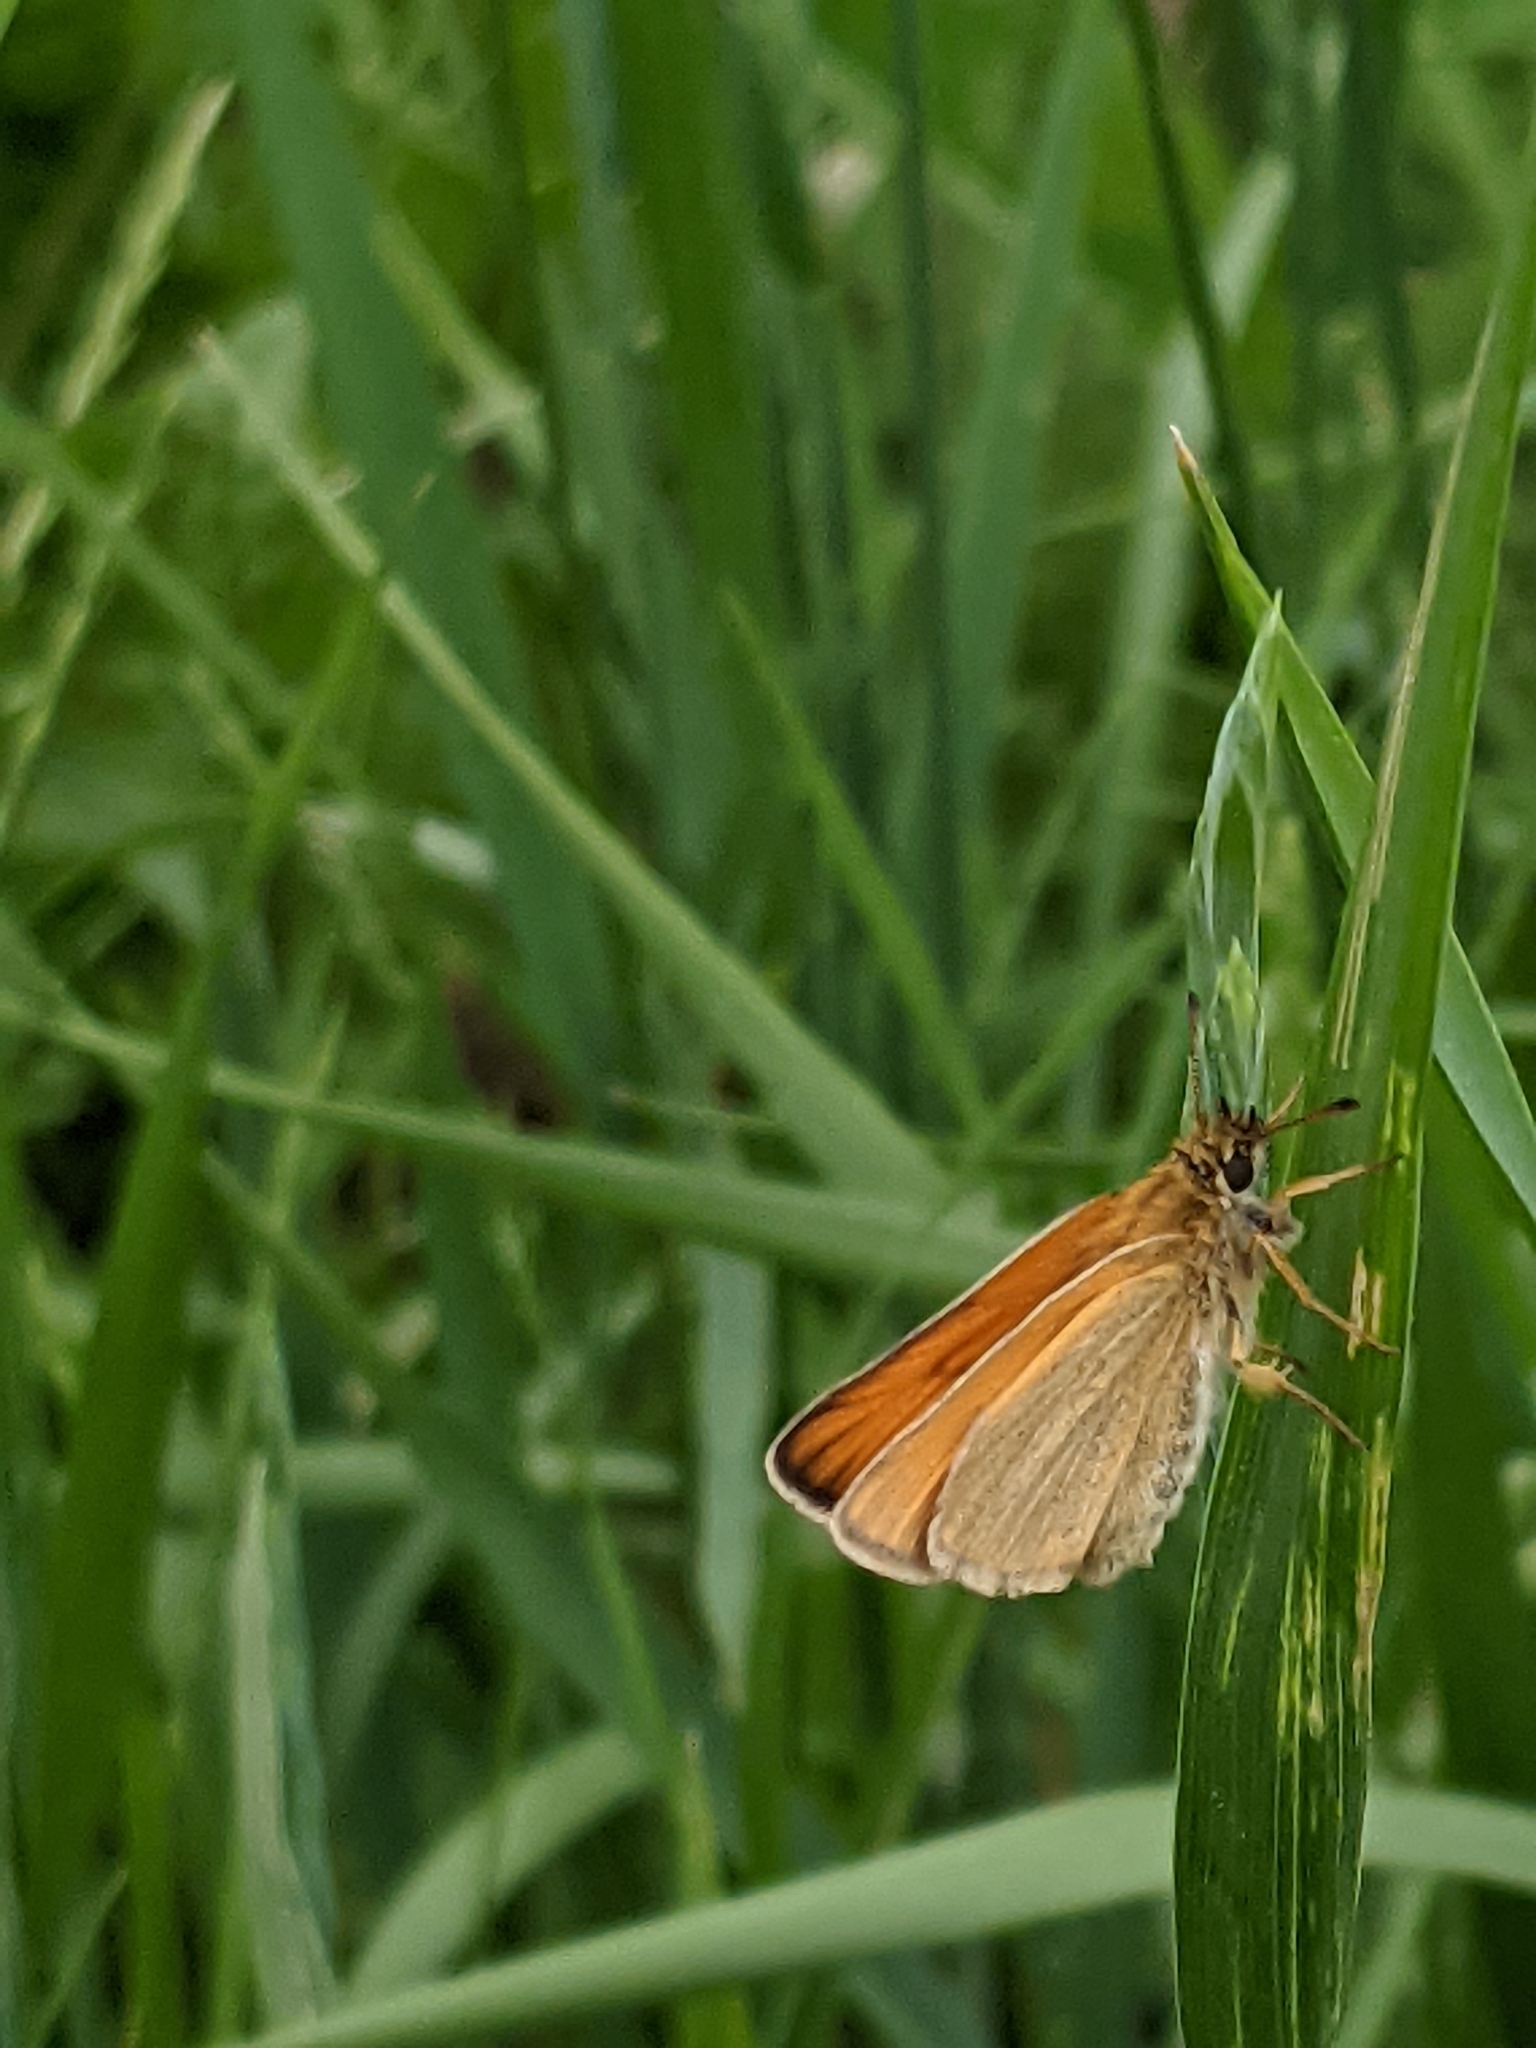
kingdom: Animalia
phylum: Arthropoda
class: Insecta
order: Lepidoptera
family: Hesperiidae
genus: Thymelicus
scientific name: Thymelicus lineola
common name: Essex skipper
